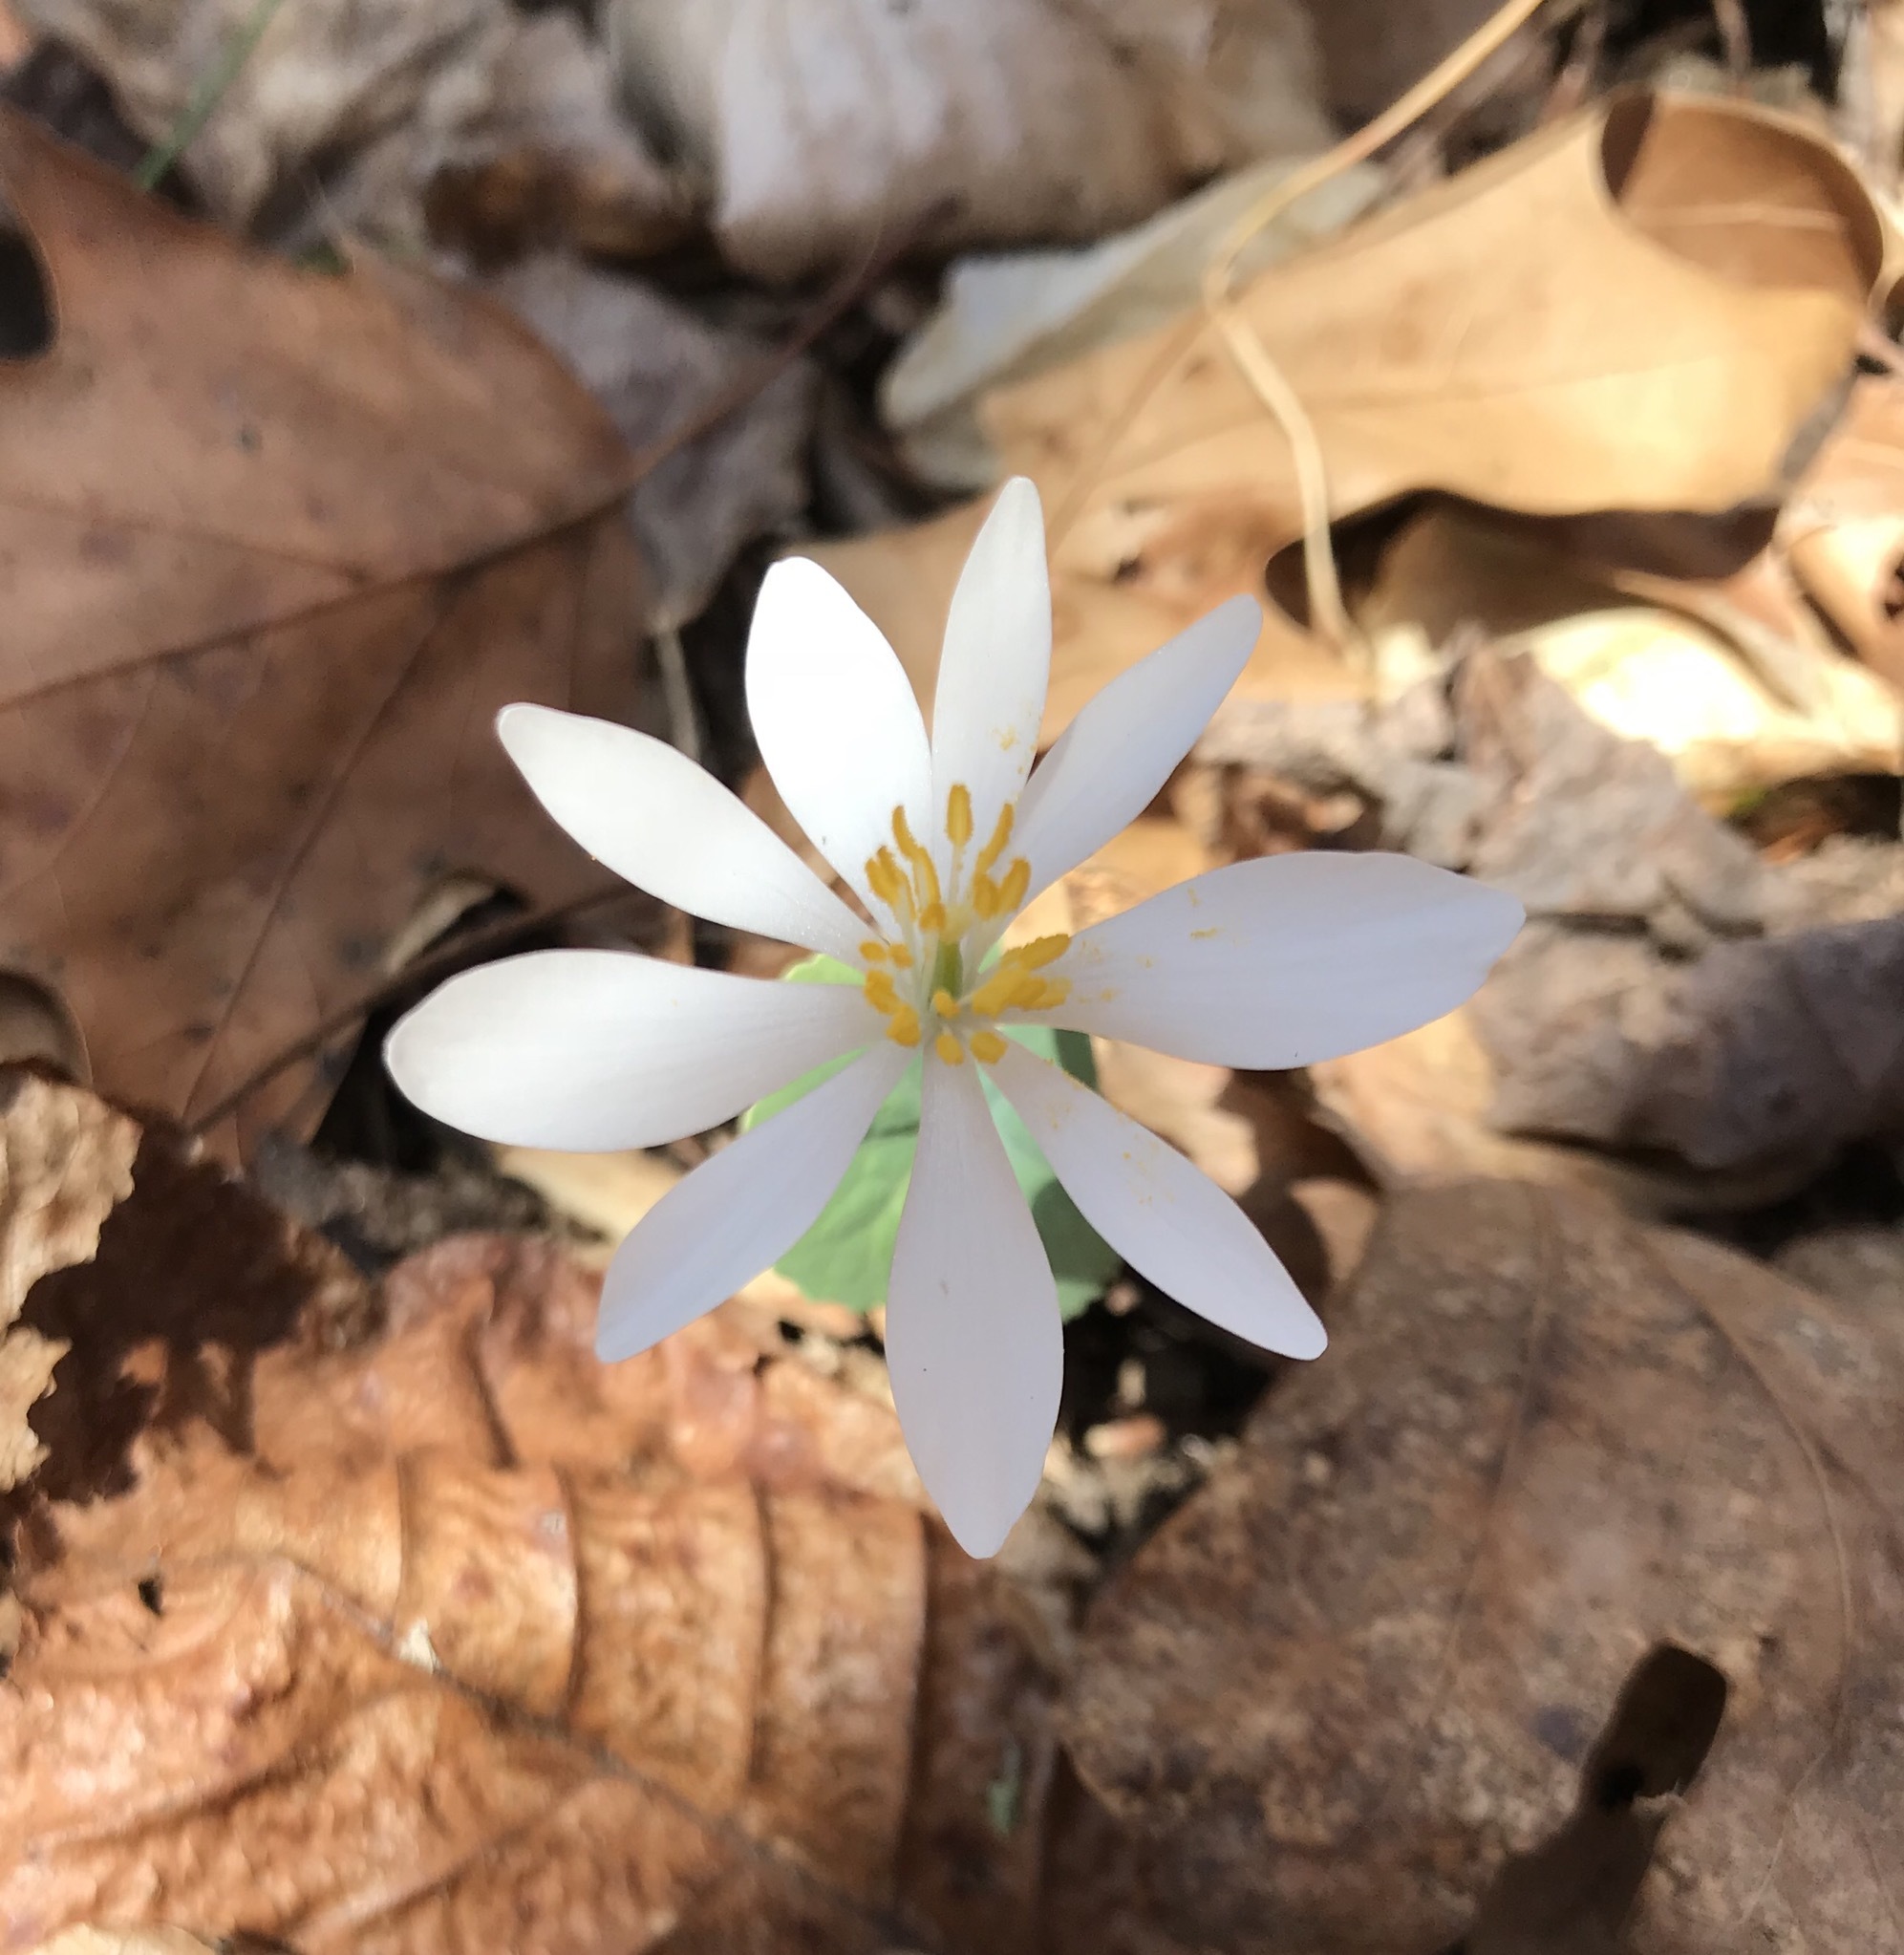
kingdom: Plantae
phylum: Tracheophyta
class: Magnoliopsida
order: Ranunculales
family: Papaveraceae
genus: Sanguinaria
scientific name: Sanguinaria canadensis
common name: Bloodroot
